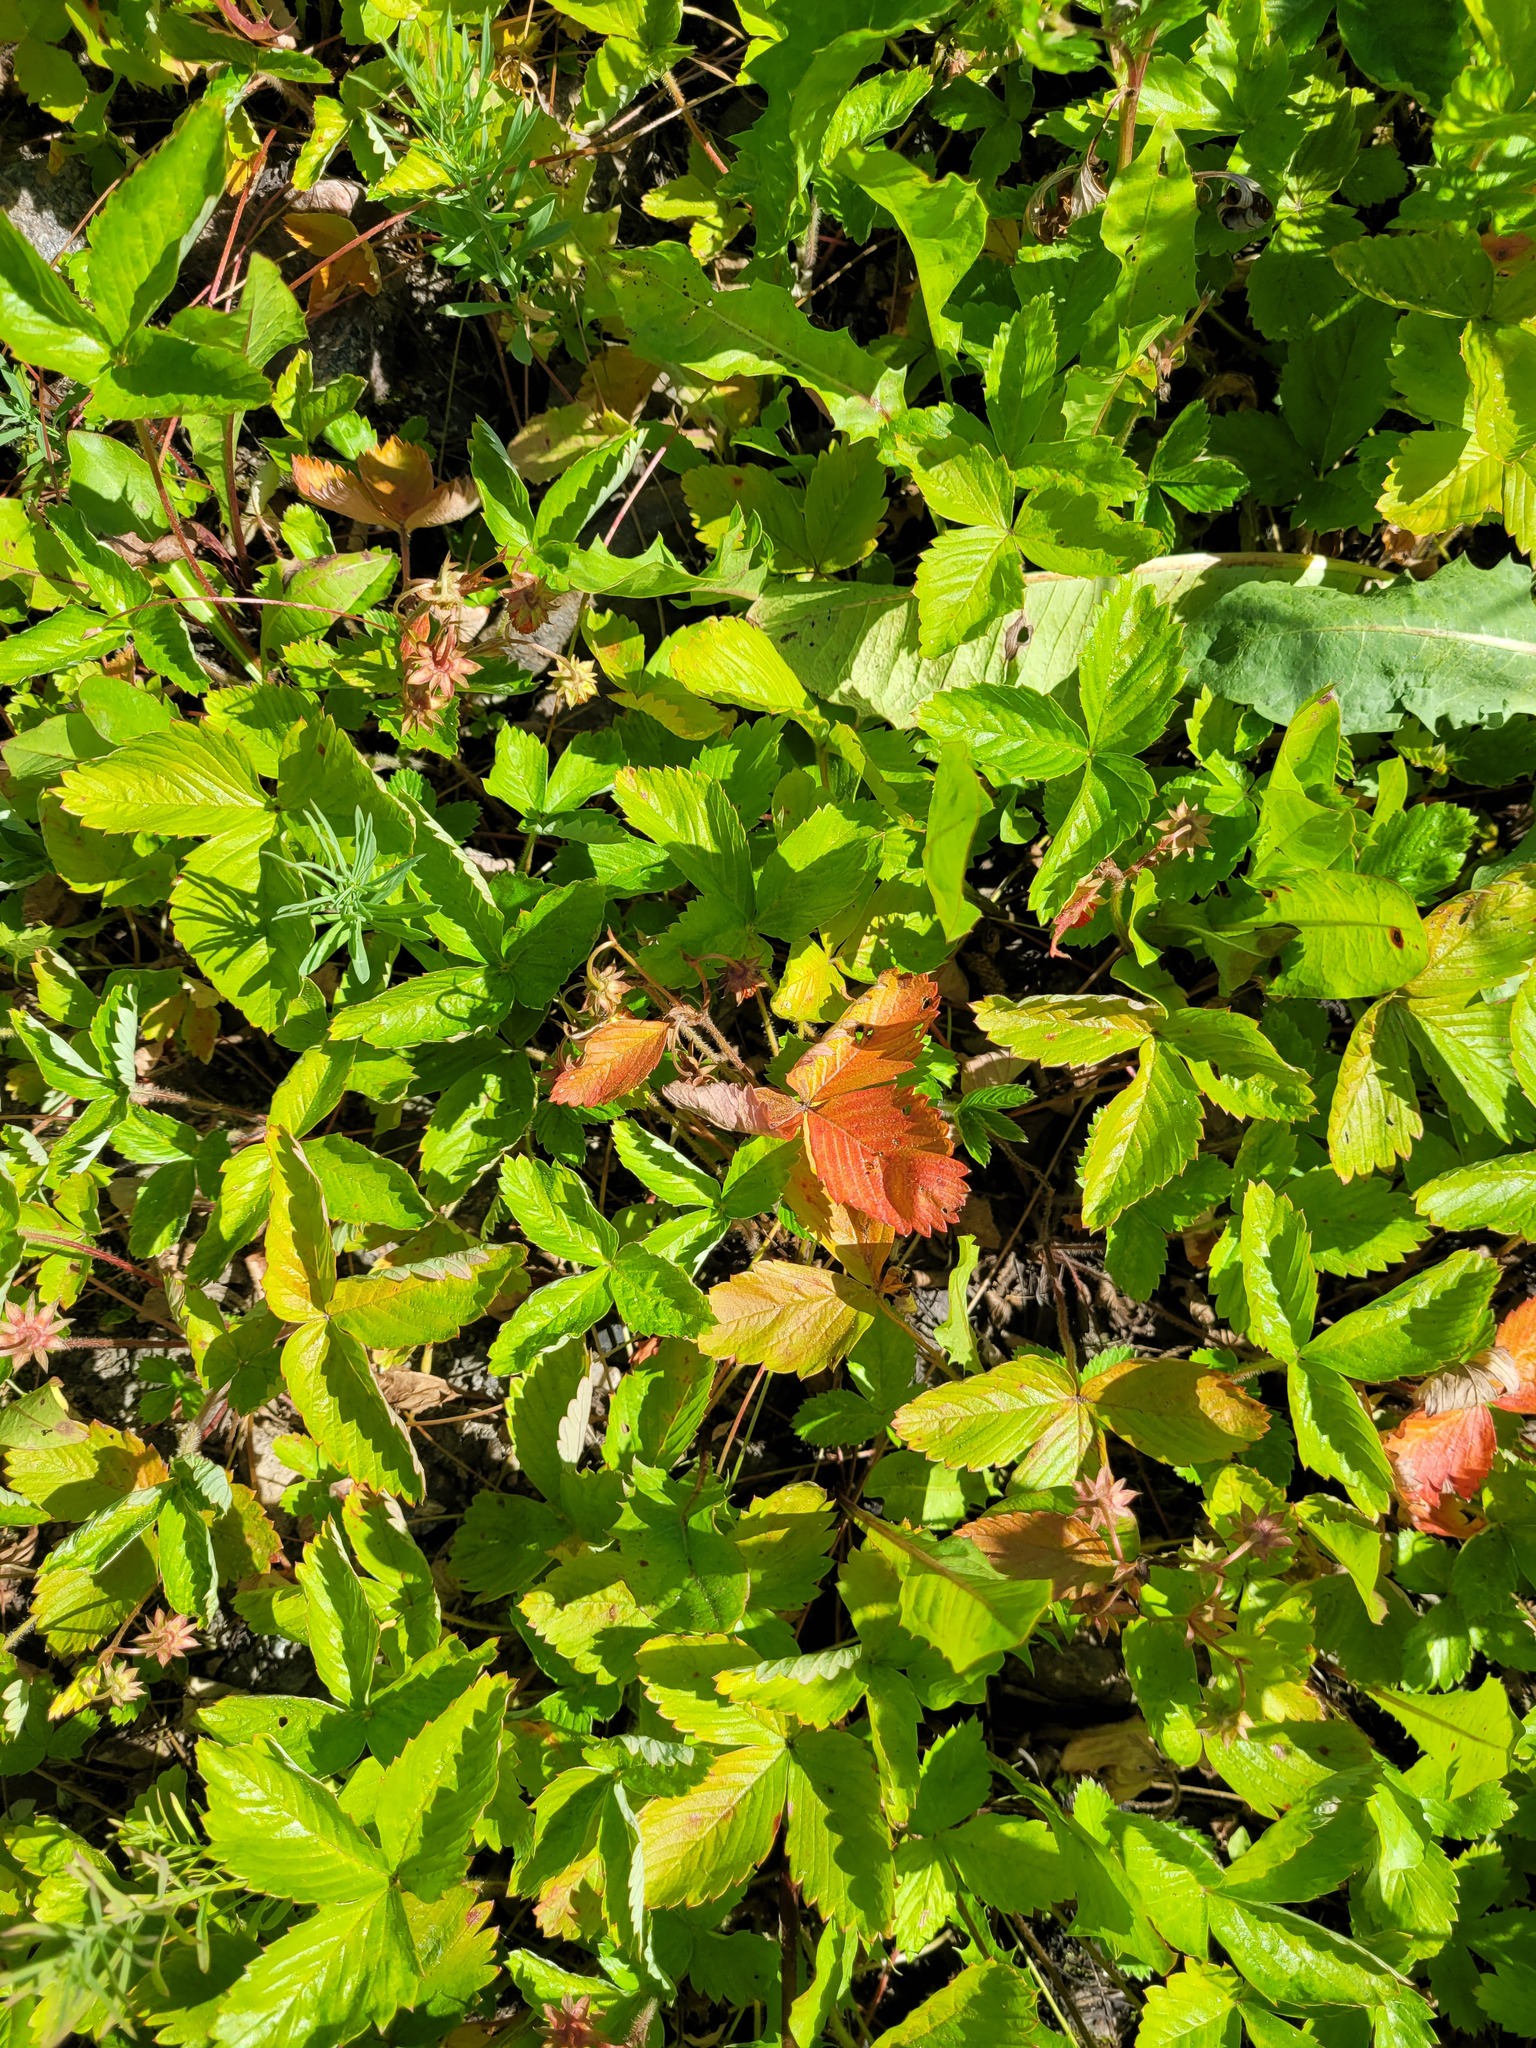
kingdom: Plantae
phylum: Tracheophyta
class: Magnoliopsida
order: Rosales
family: Rosaceae
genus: Fragaria
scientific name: Fragaria vesca
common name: Wild strawberry
